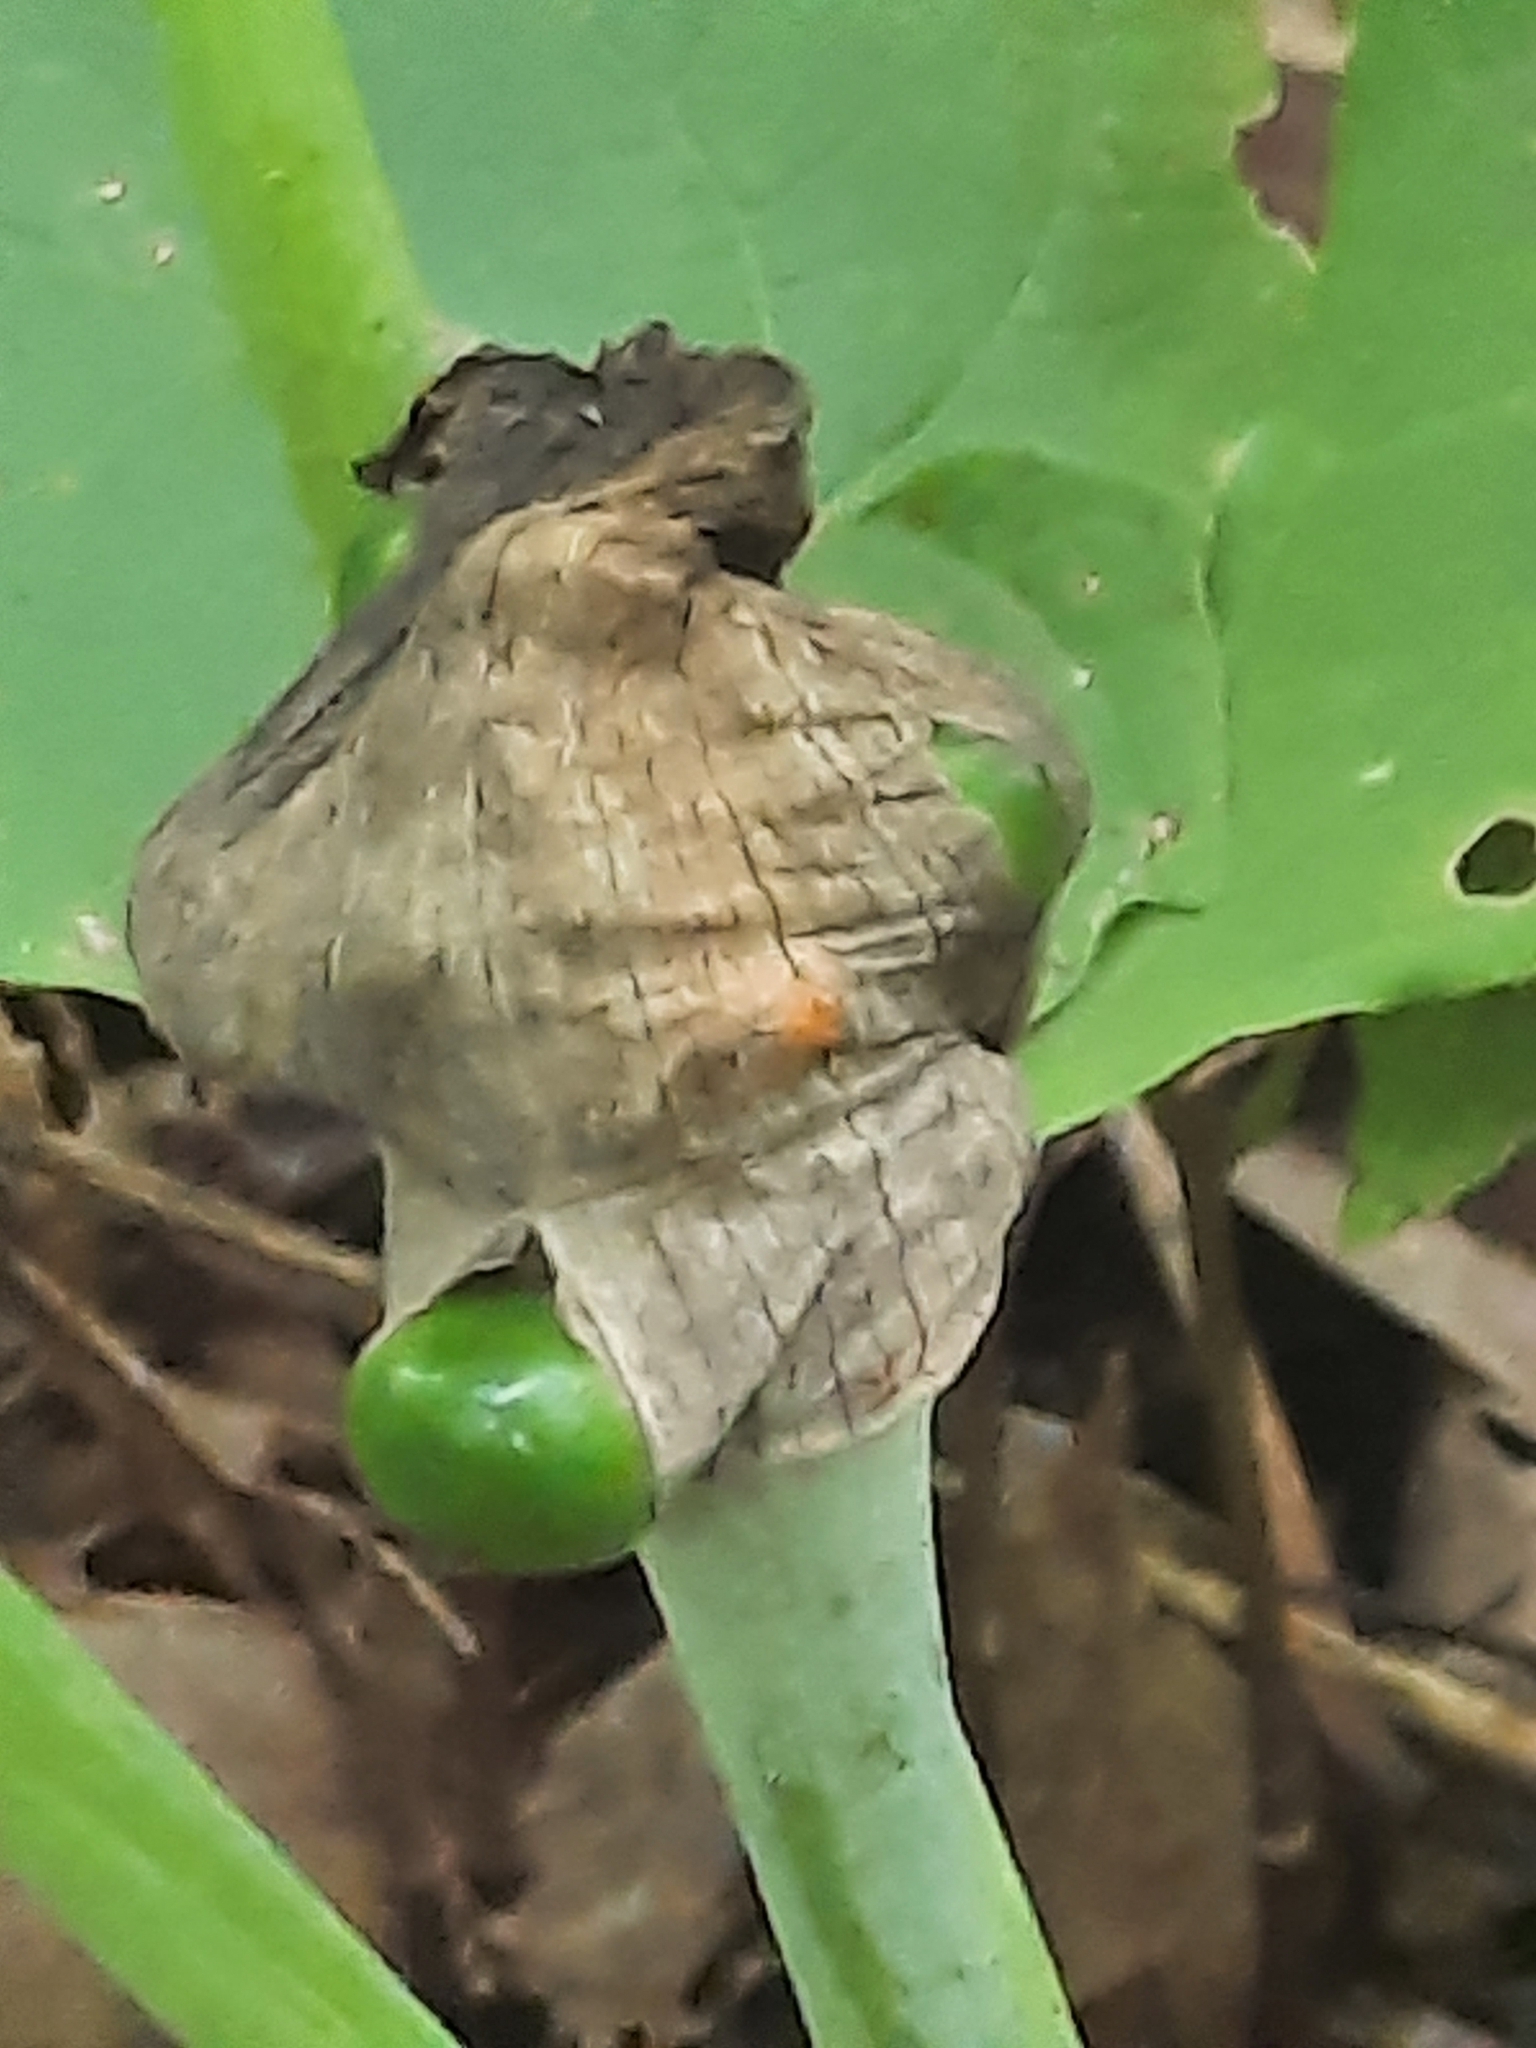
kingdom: Plantae
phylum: Tracheophyta
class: Liliopsida
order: Alismatales
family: Araceae
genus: Arisaema
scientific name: Arisaema triphyllum
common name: Jack-in-the-pulpit
